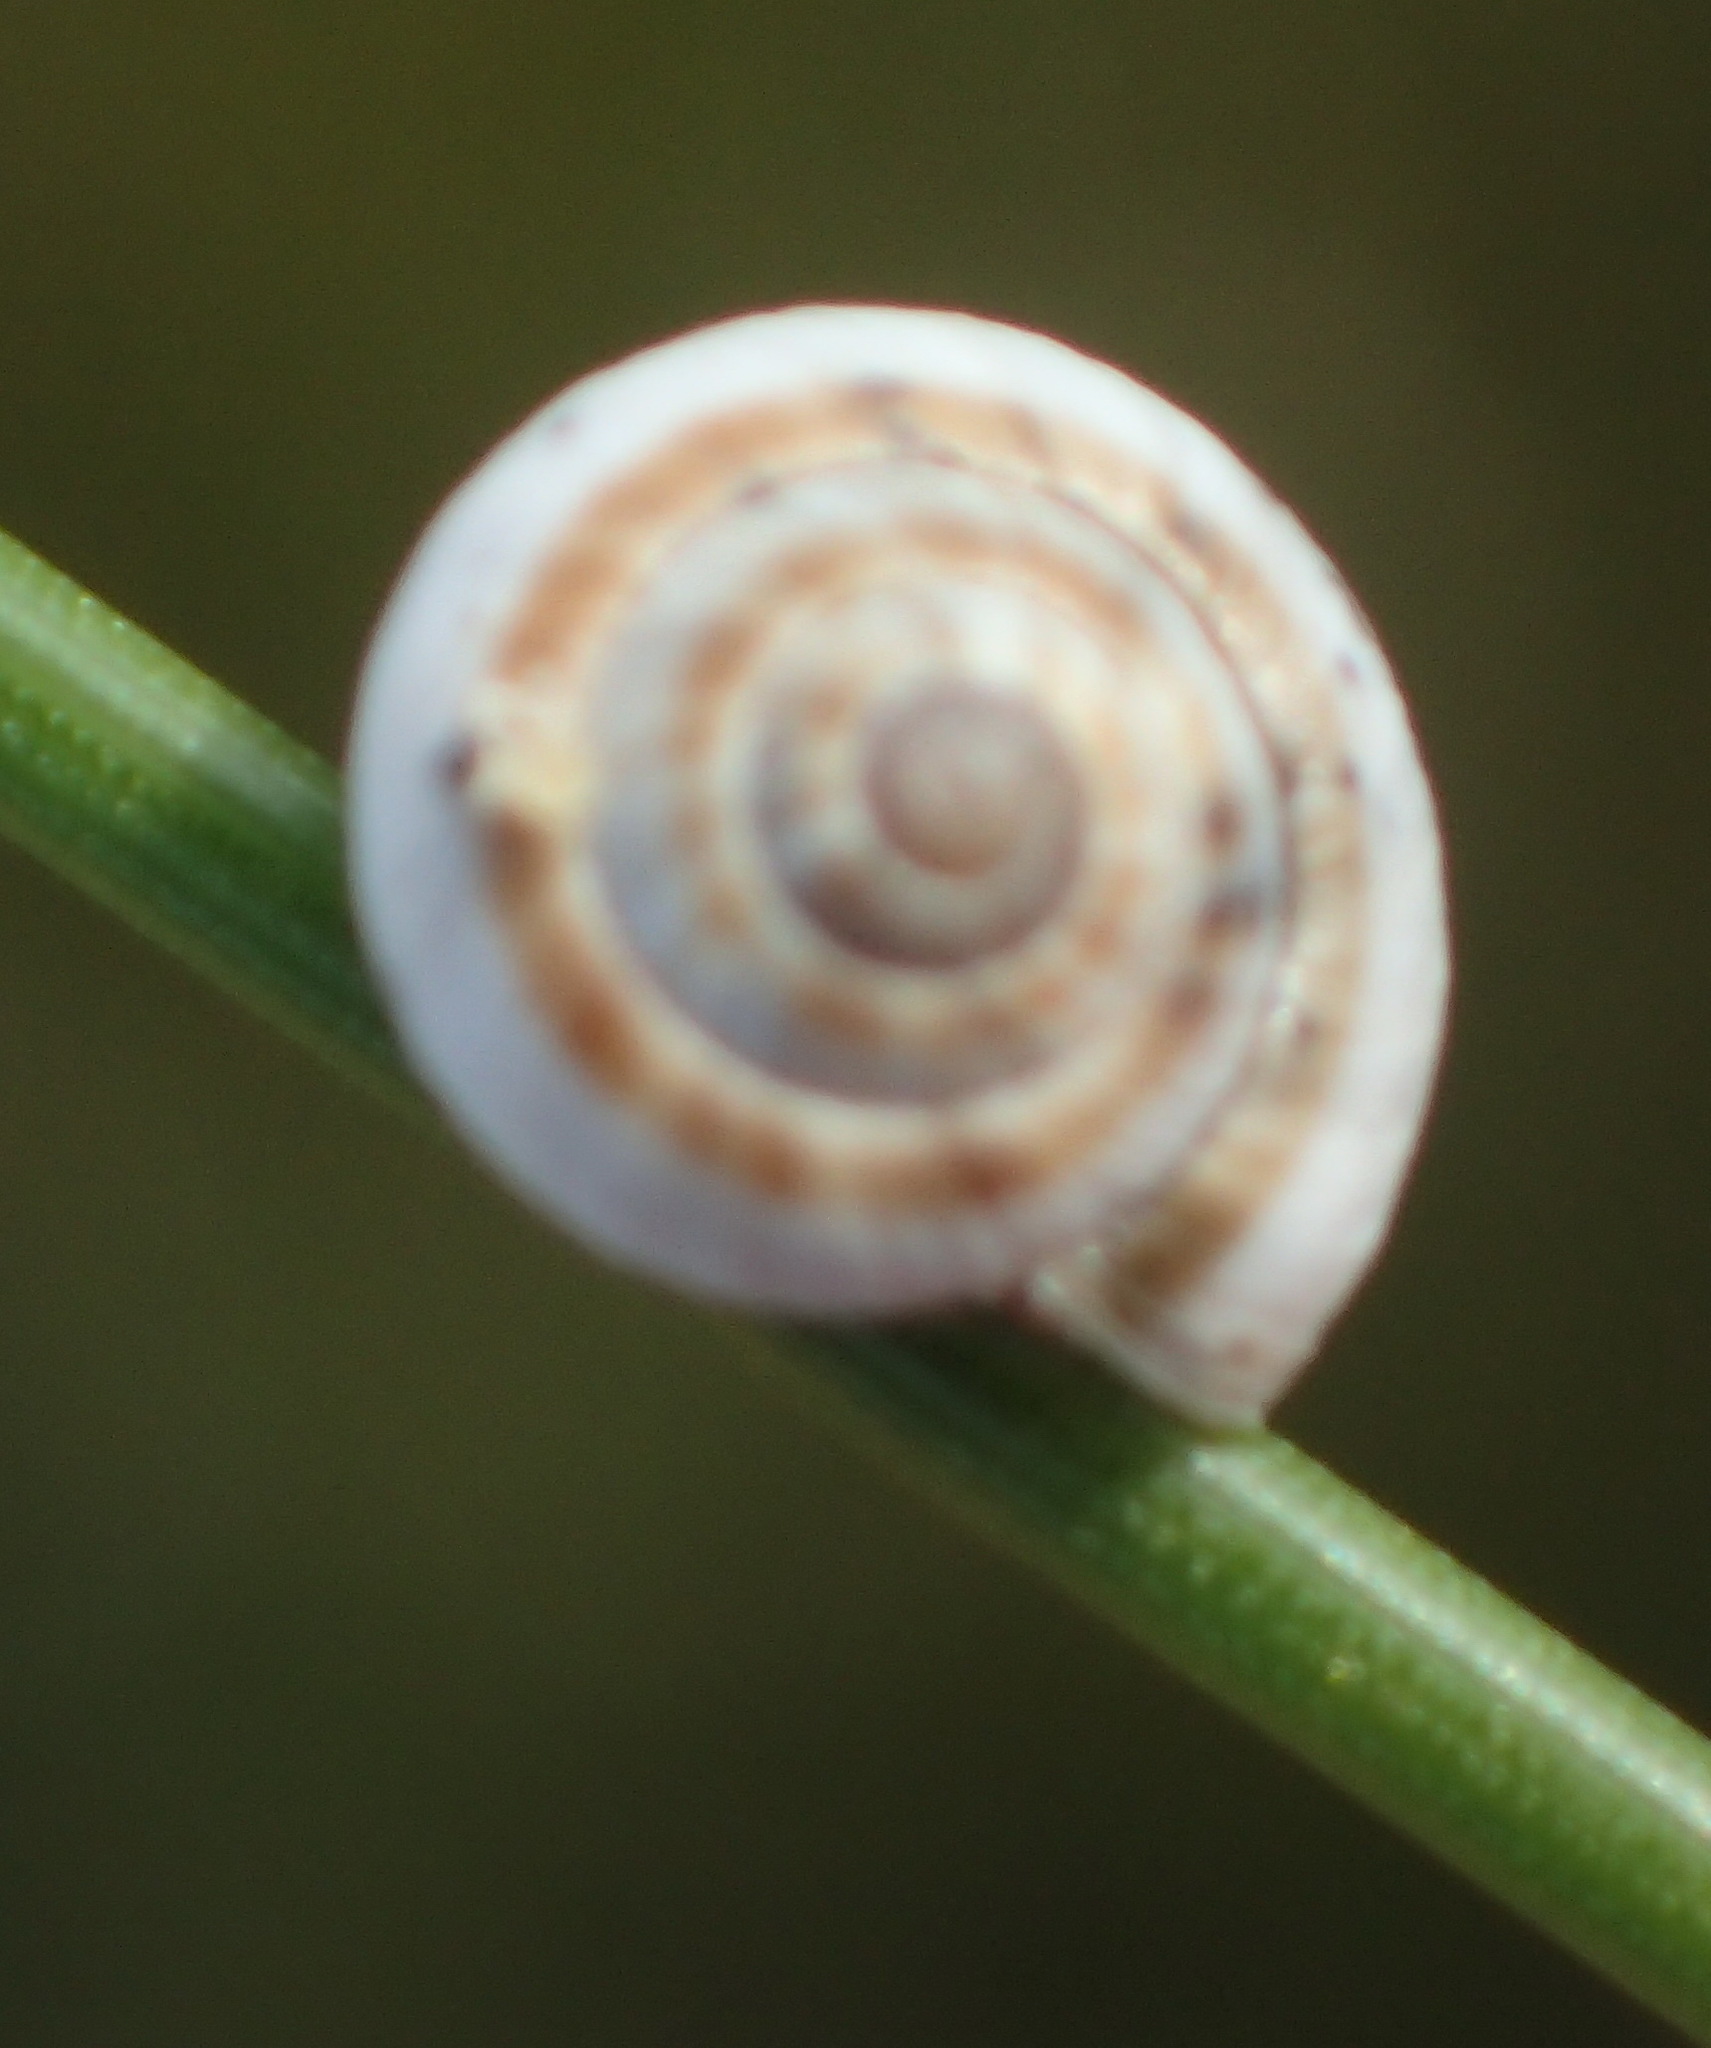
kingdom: Animalia
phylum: Mollusca
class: Gastropoda
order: Stylommatophora
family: Helicidae
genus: Theba
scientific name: Theba pisana
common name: White snail
